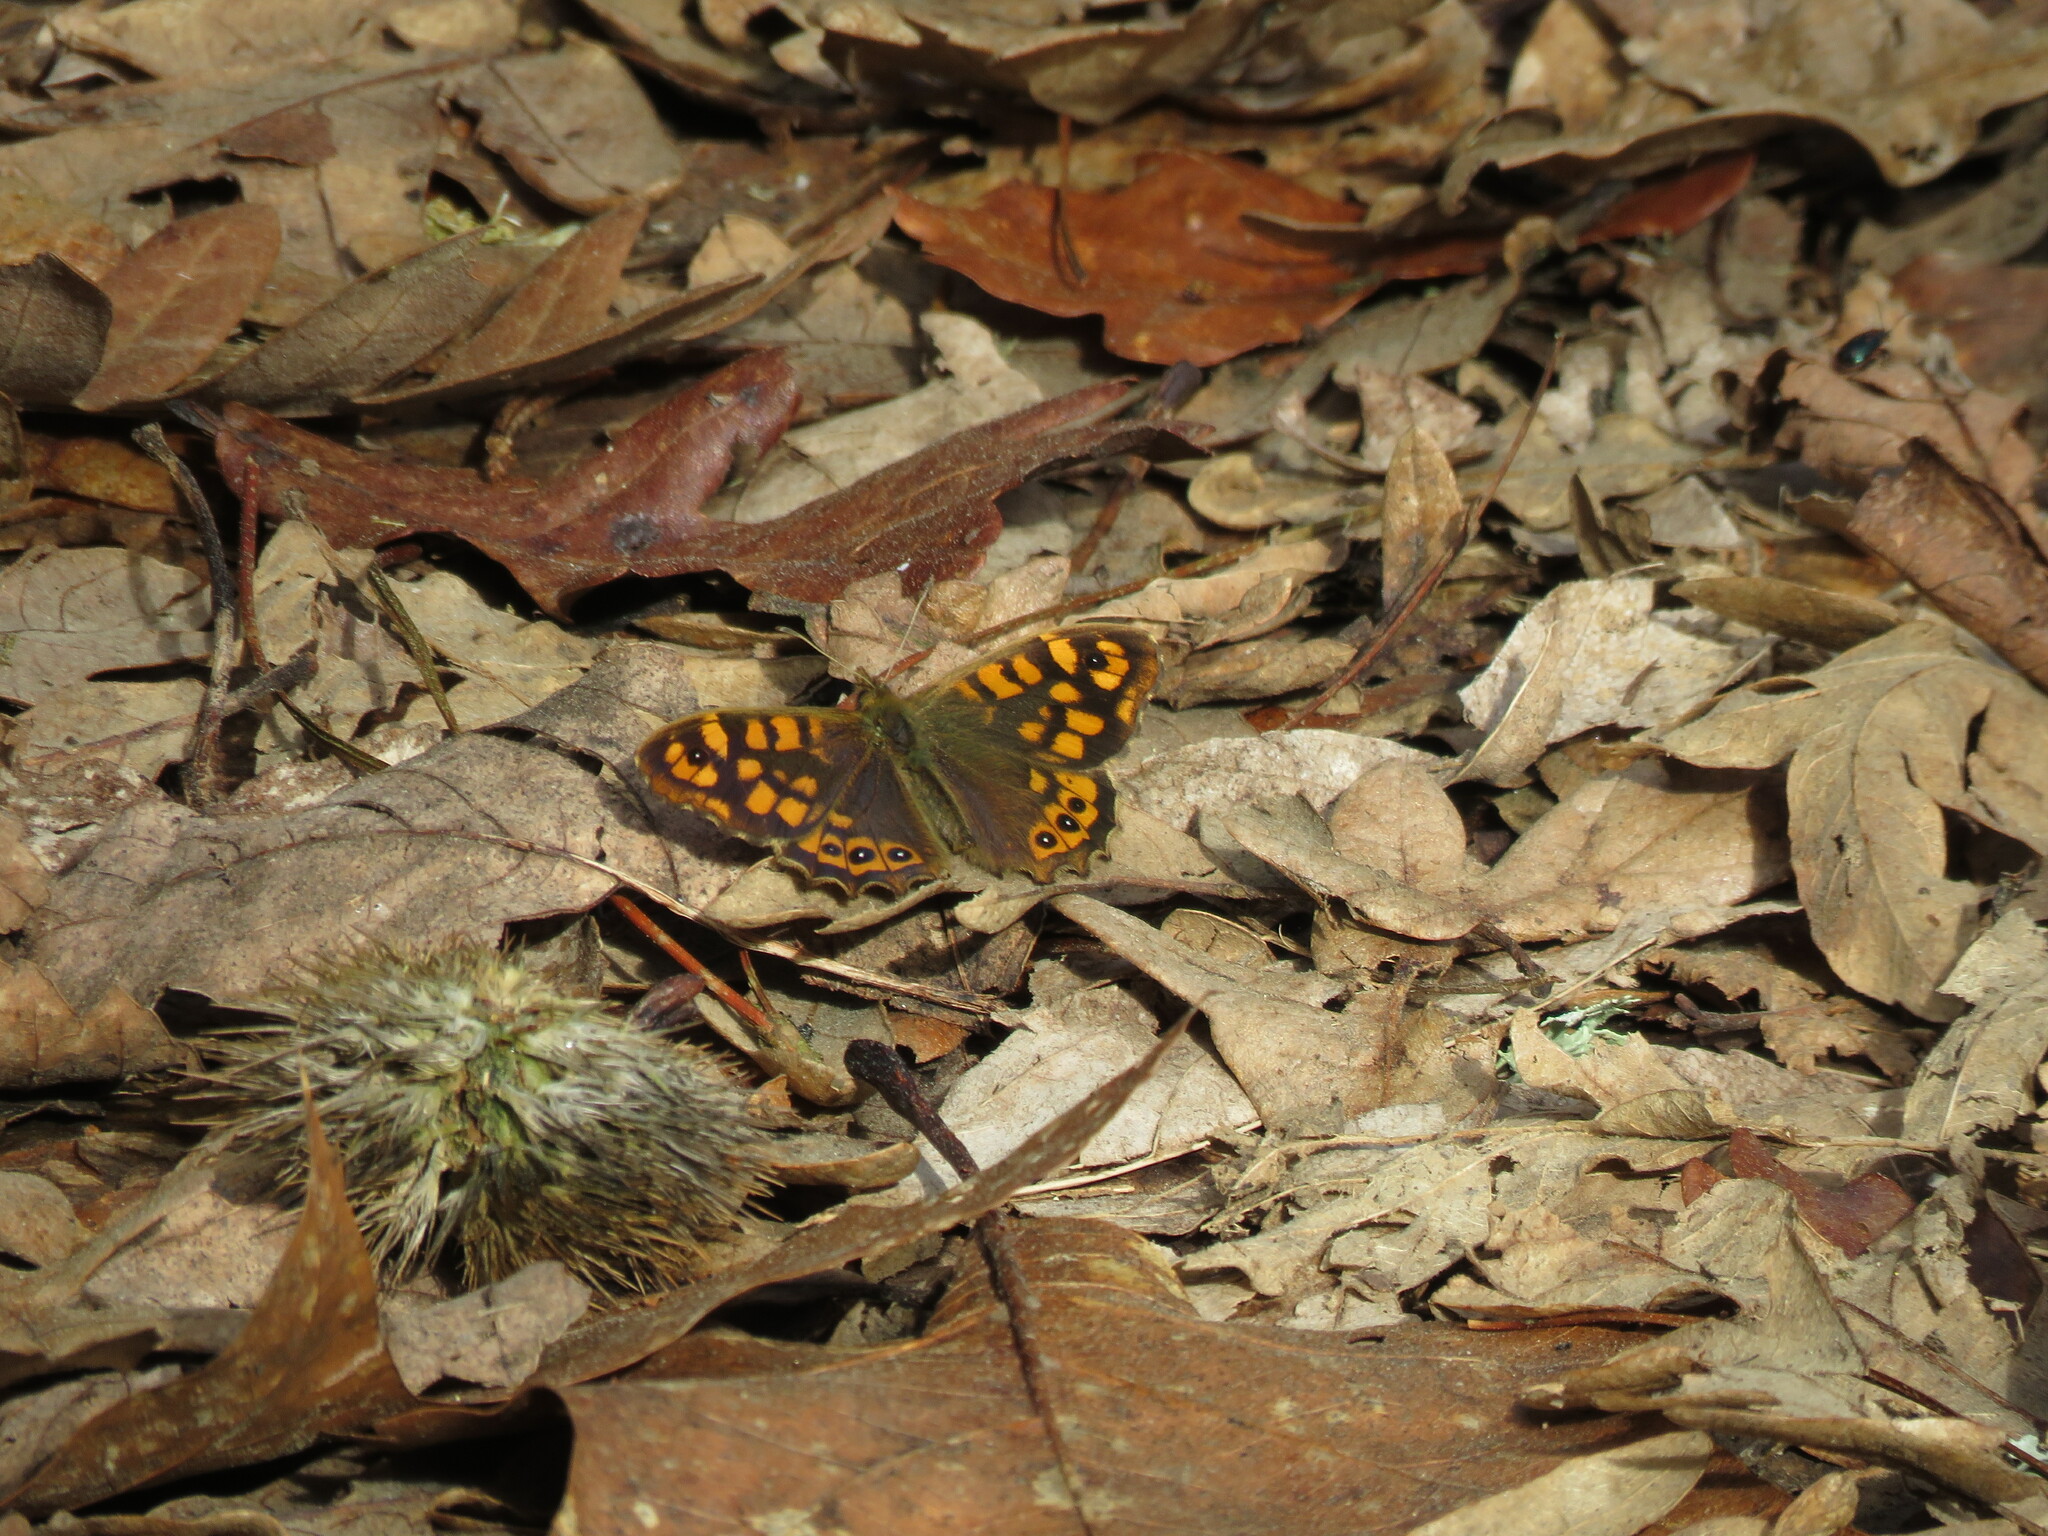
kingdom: Animalia
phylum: Arthropoda
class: Insecta
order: Lepidoptera
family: Nymphalidae
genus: Pararge
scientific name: Pararge aegeria
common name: Speckled wood
